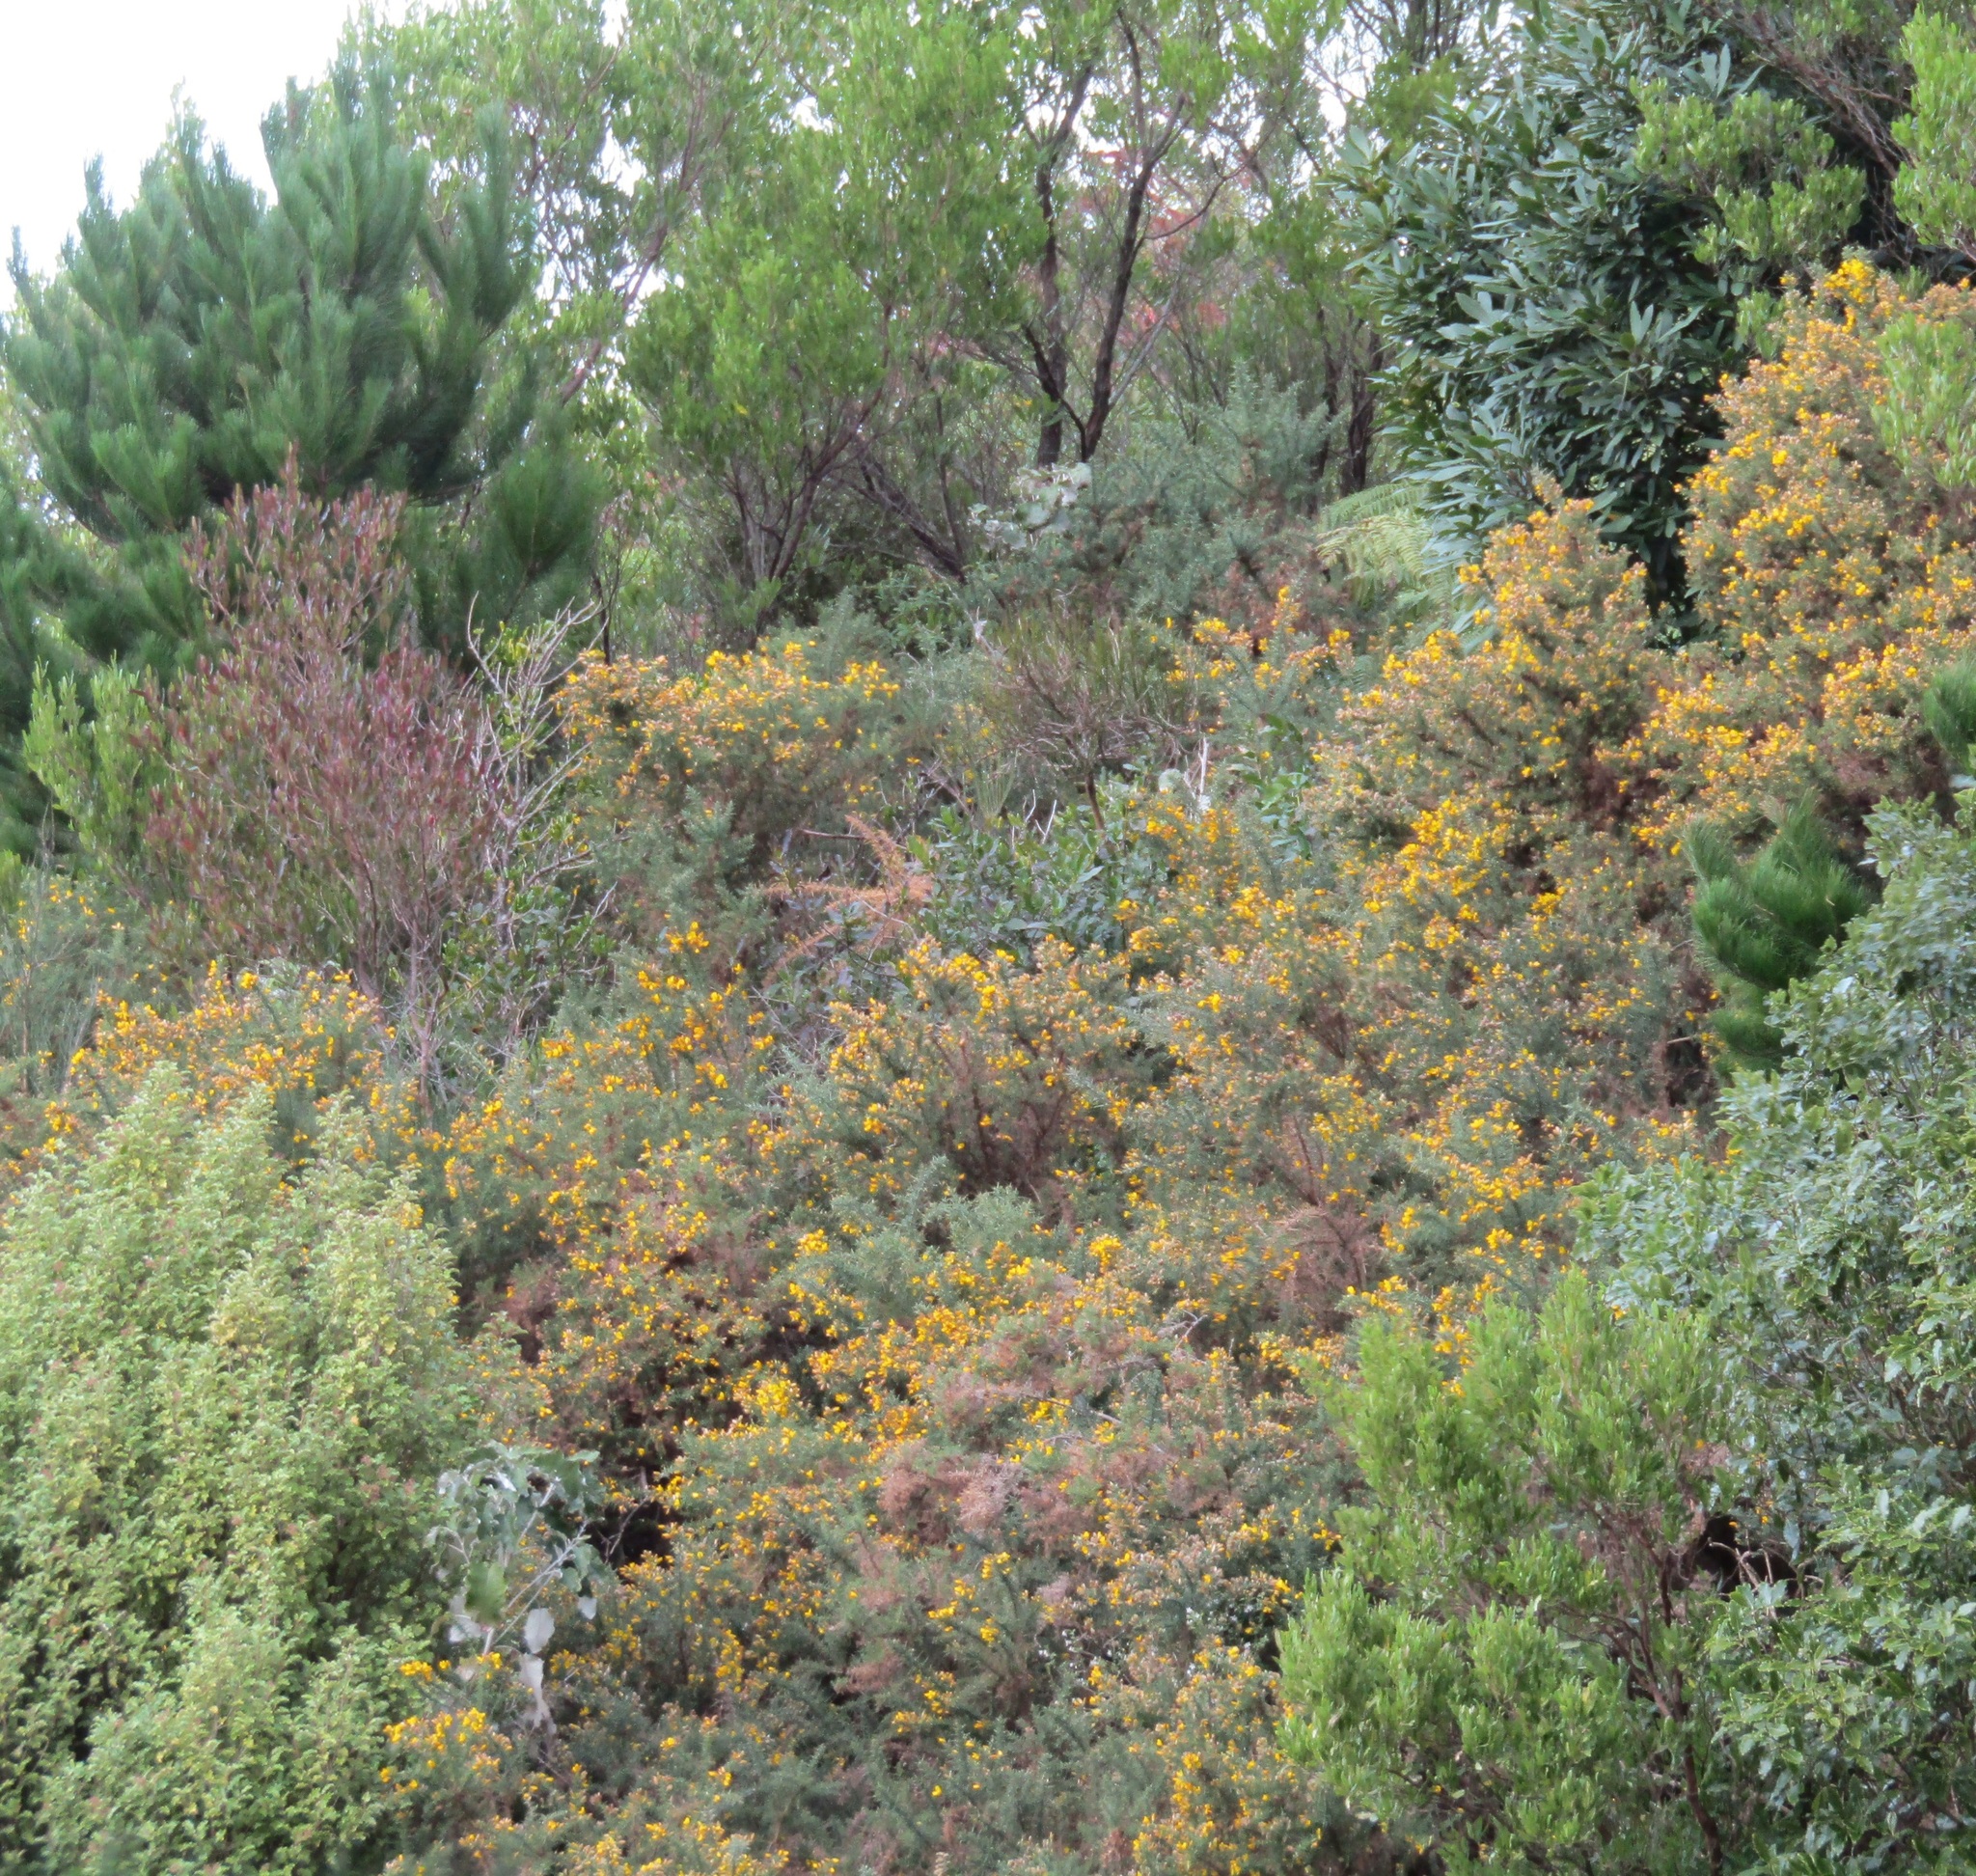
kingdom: Plantae
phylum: Tracheophyta
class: Magnoliopsida
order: Fabales
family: Fabaceae
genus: Ulex
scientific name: Ulex europaeus
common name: Common gorse
